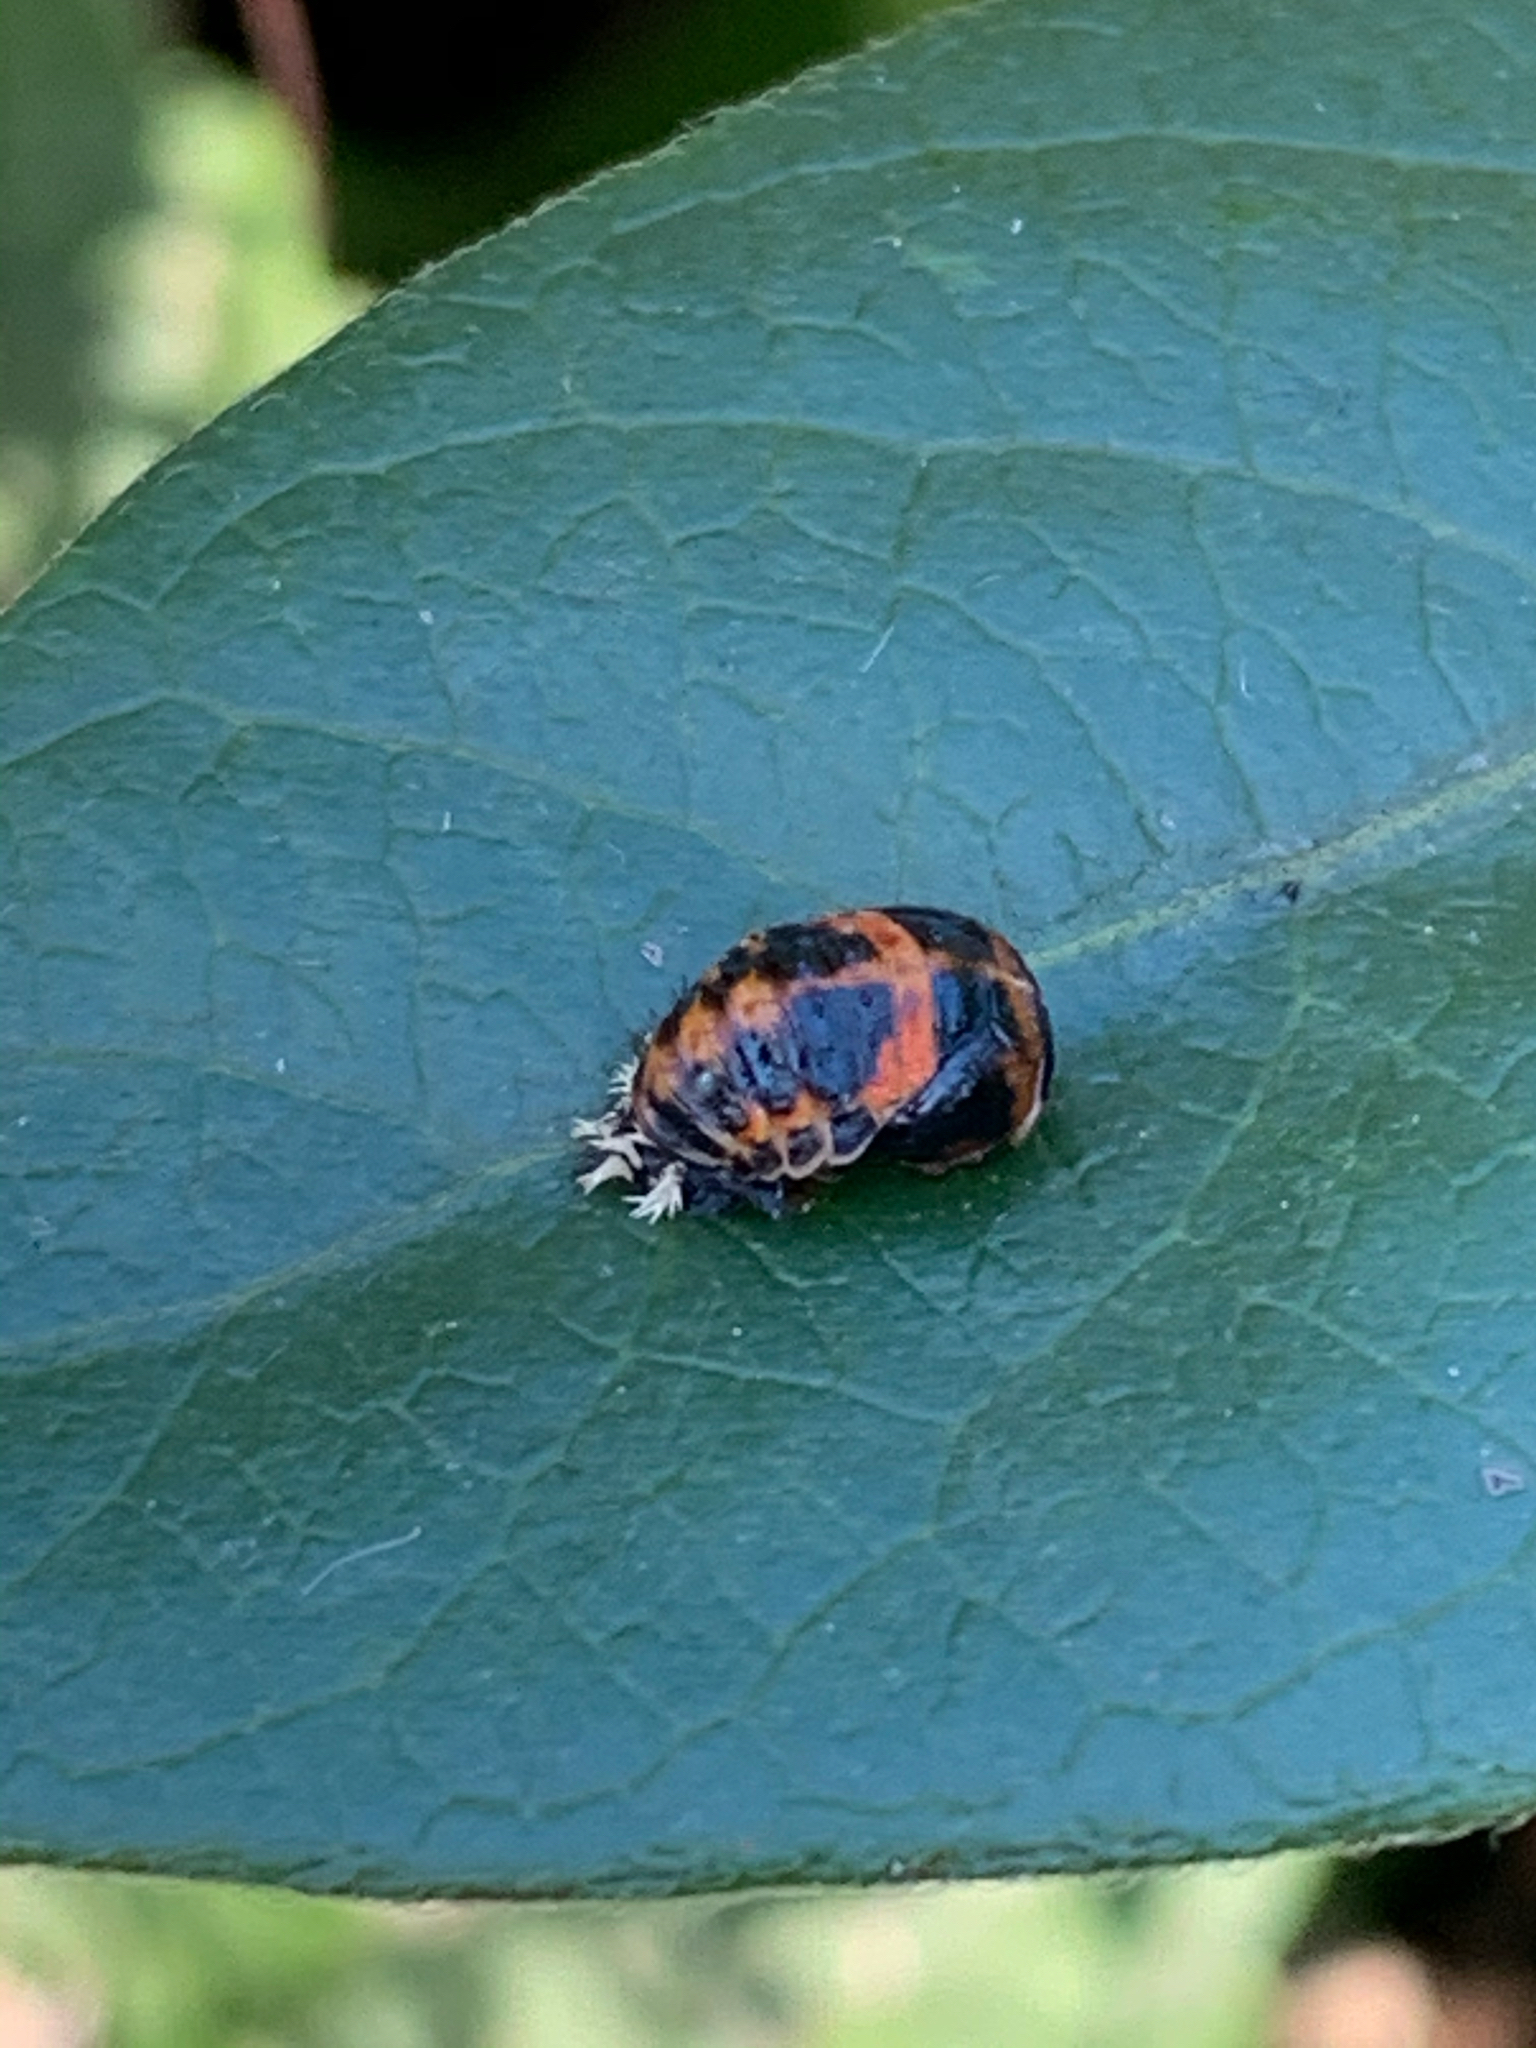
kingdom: Animalia
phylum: Arthropoda
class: Insecta
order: Coleoptera
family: Coccinellidae
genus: Harmonia
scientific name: Harmonia axyridis
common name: Harlequin ladybird
